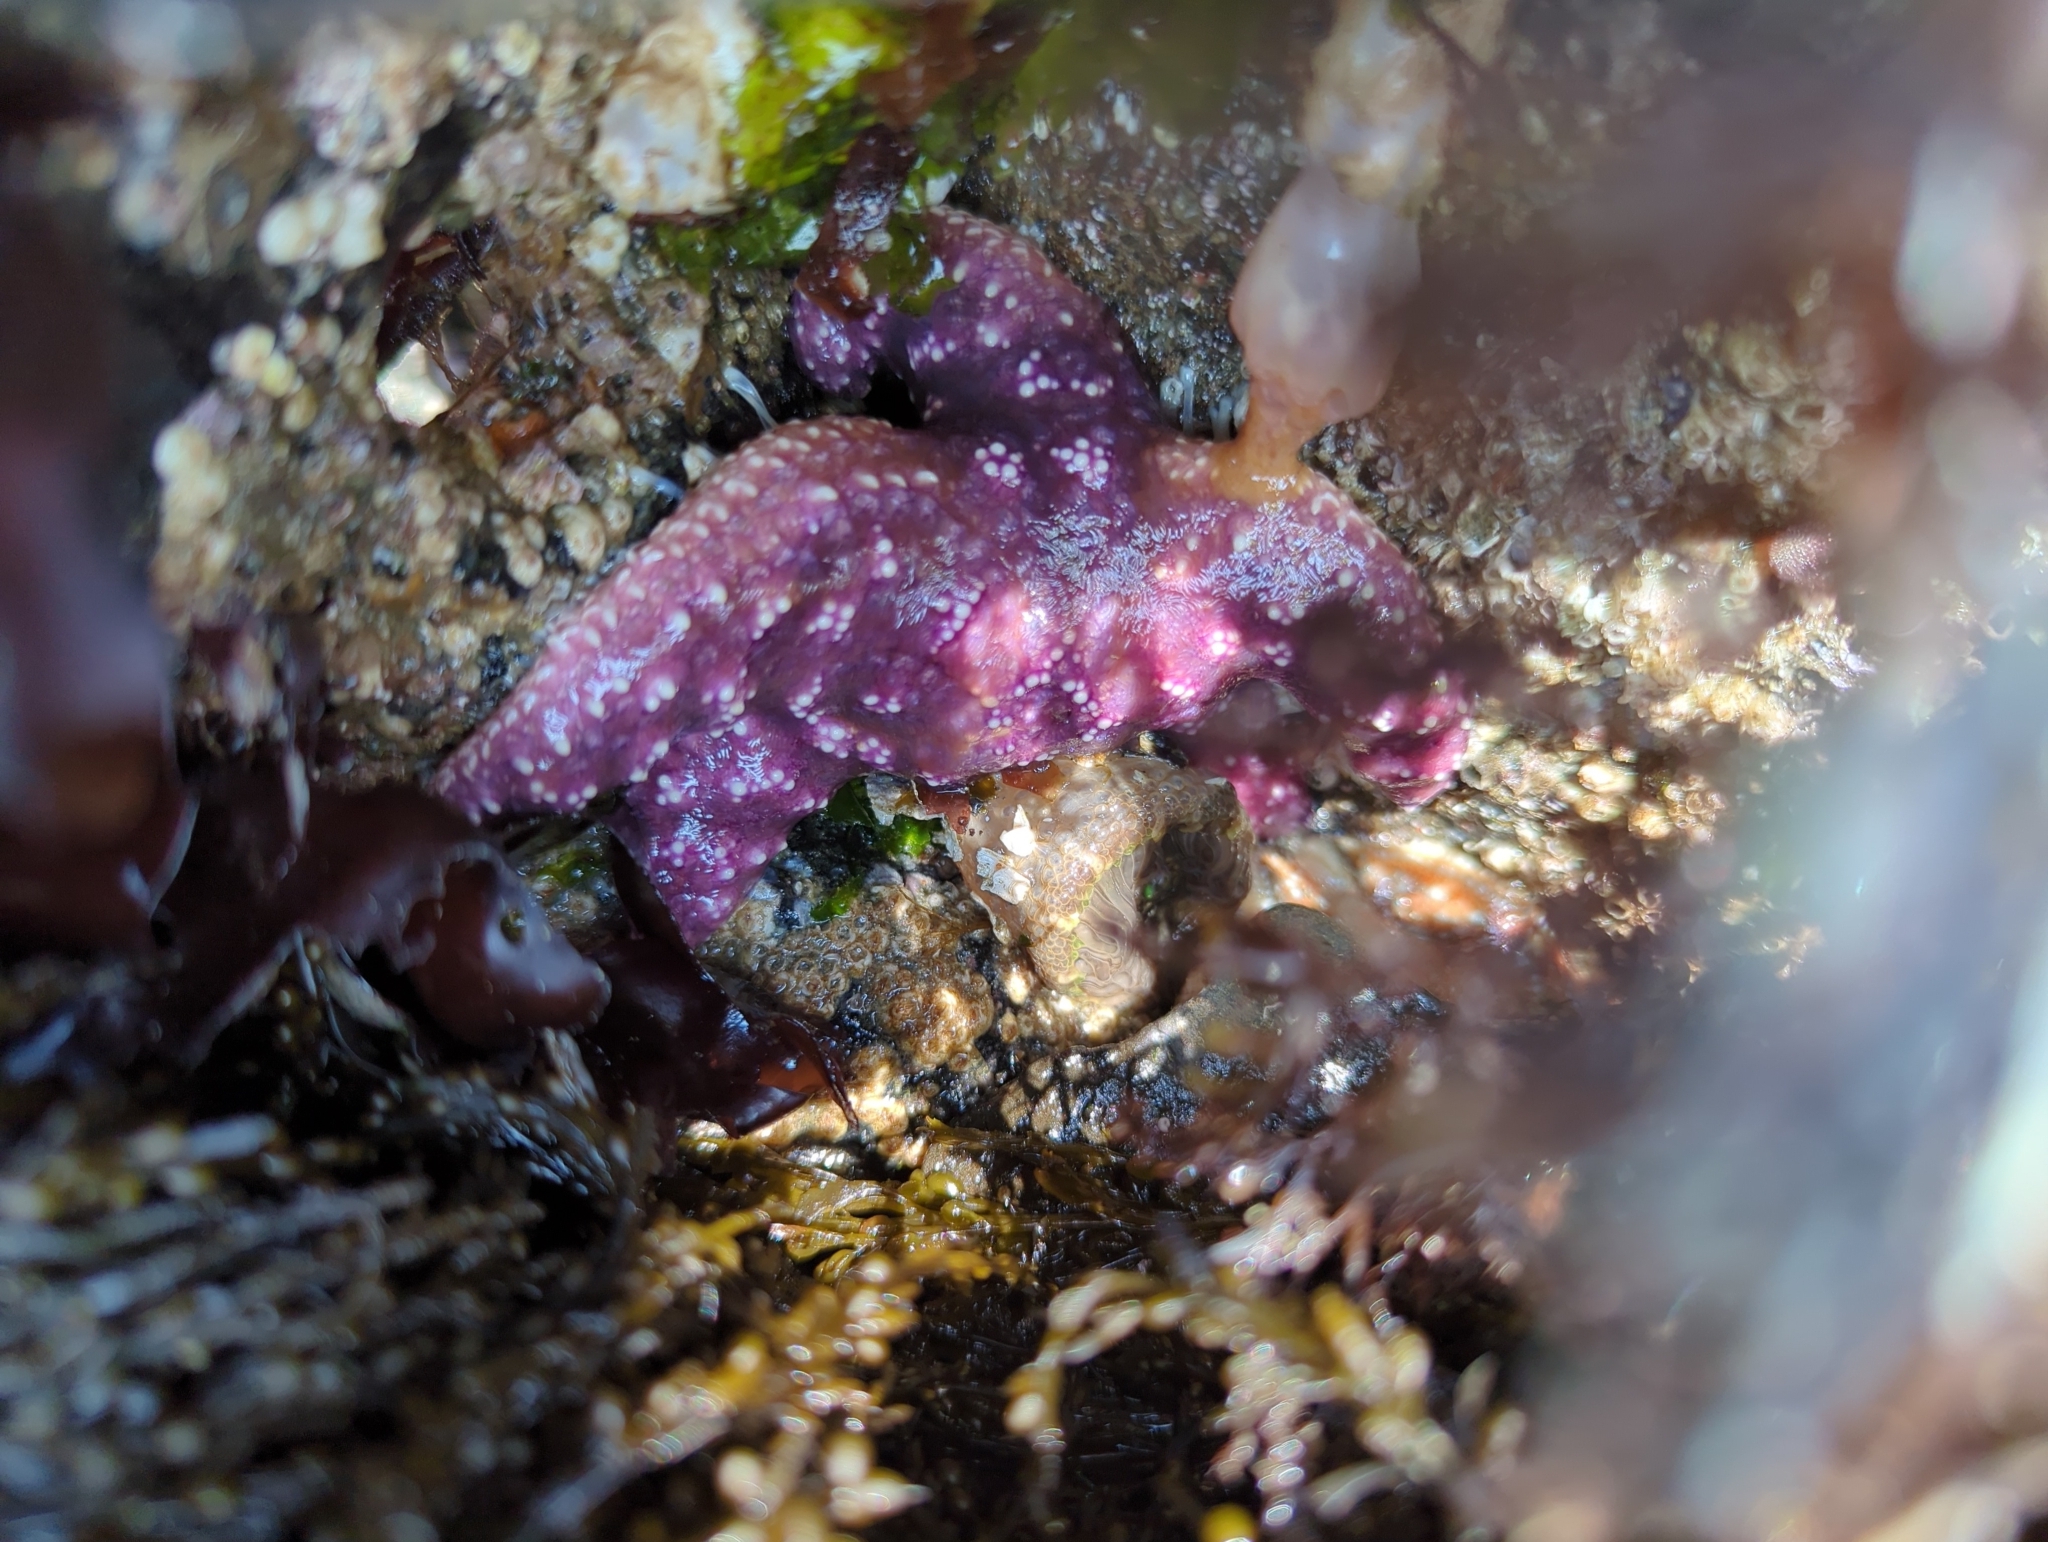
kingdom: Animalia
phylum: Echinodermata
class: Asteroidea
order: Forcipulatida
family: Asteriidae
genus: Pisaster
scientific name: Pisaster ochraceus
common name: Ochre stars
